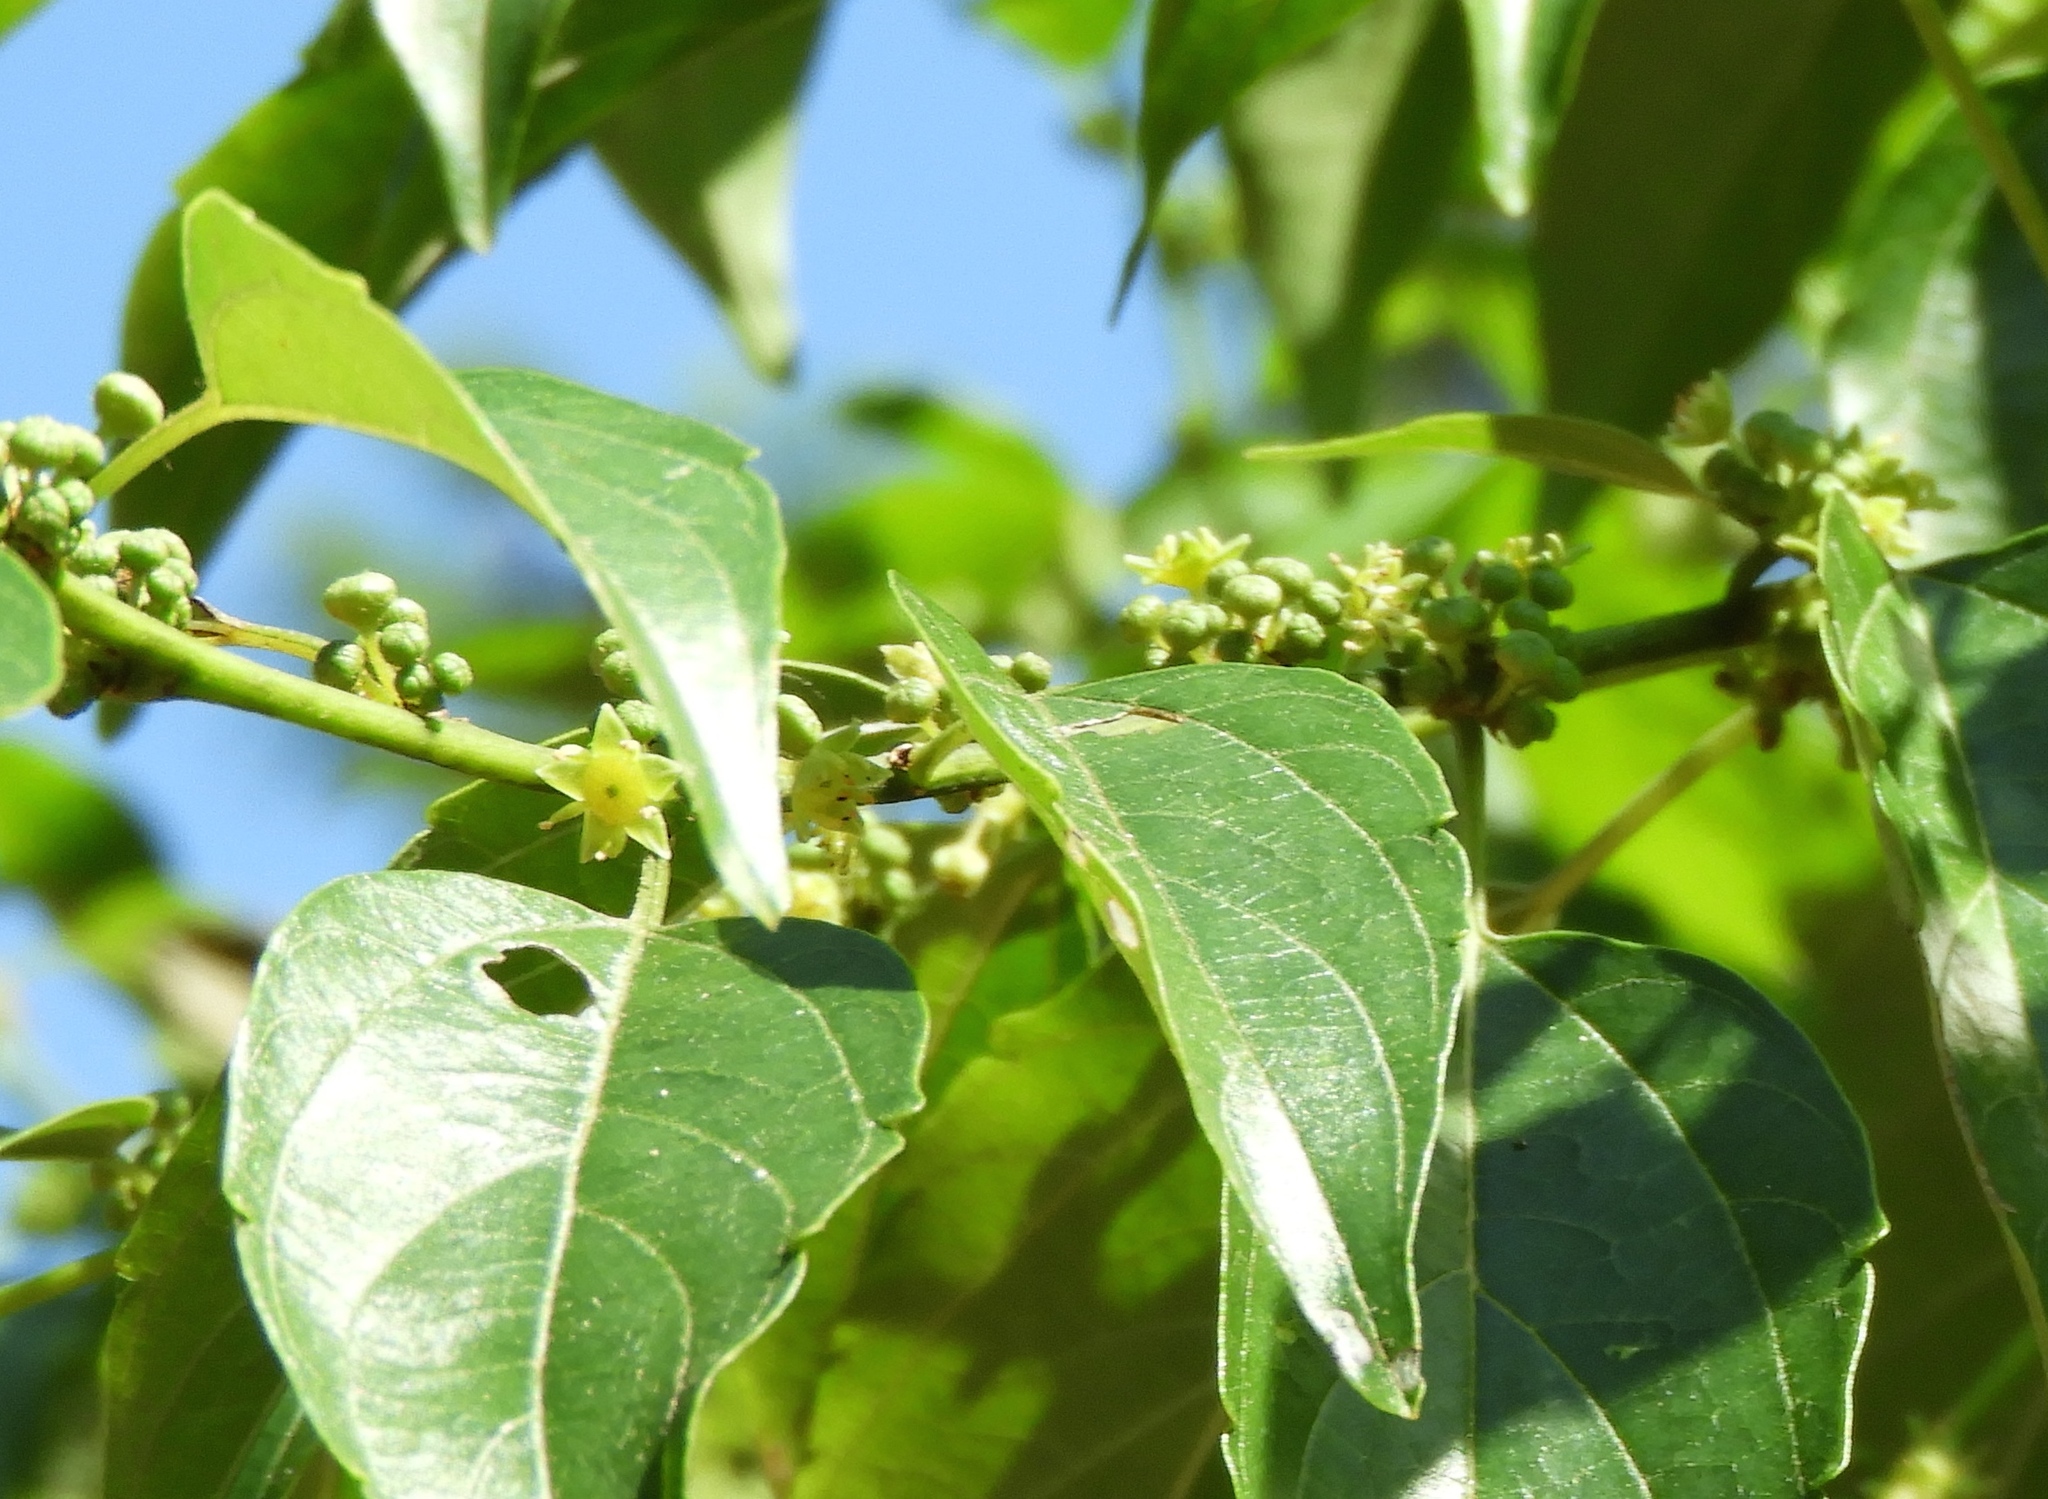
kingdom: Plantae
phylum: Tracheophyta
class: Magnoliopsida
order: Rosales
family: Rhamnaceae
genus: Colubrina
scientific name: Colubrina triflora
